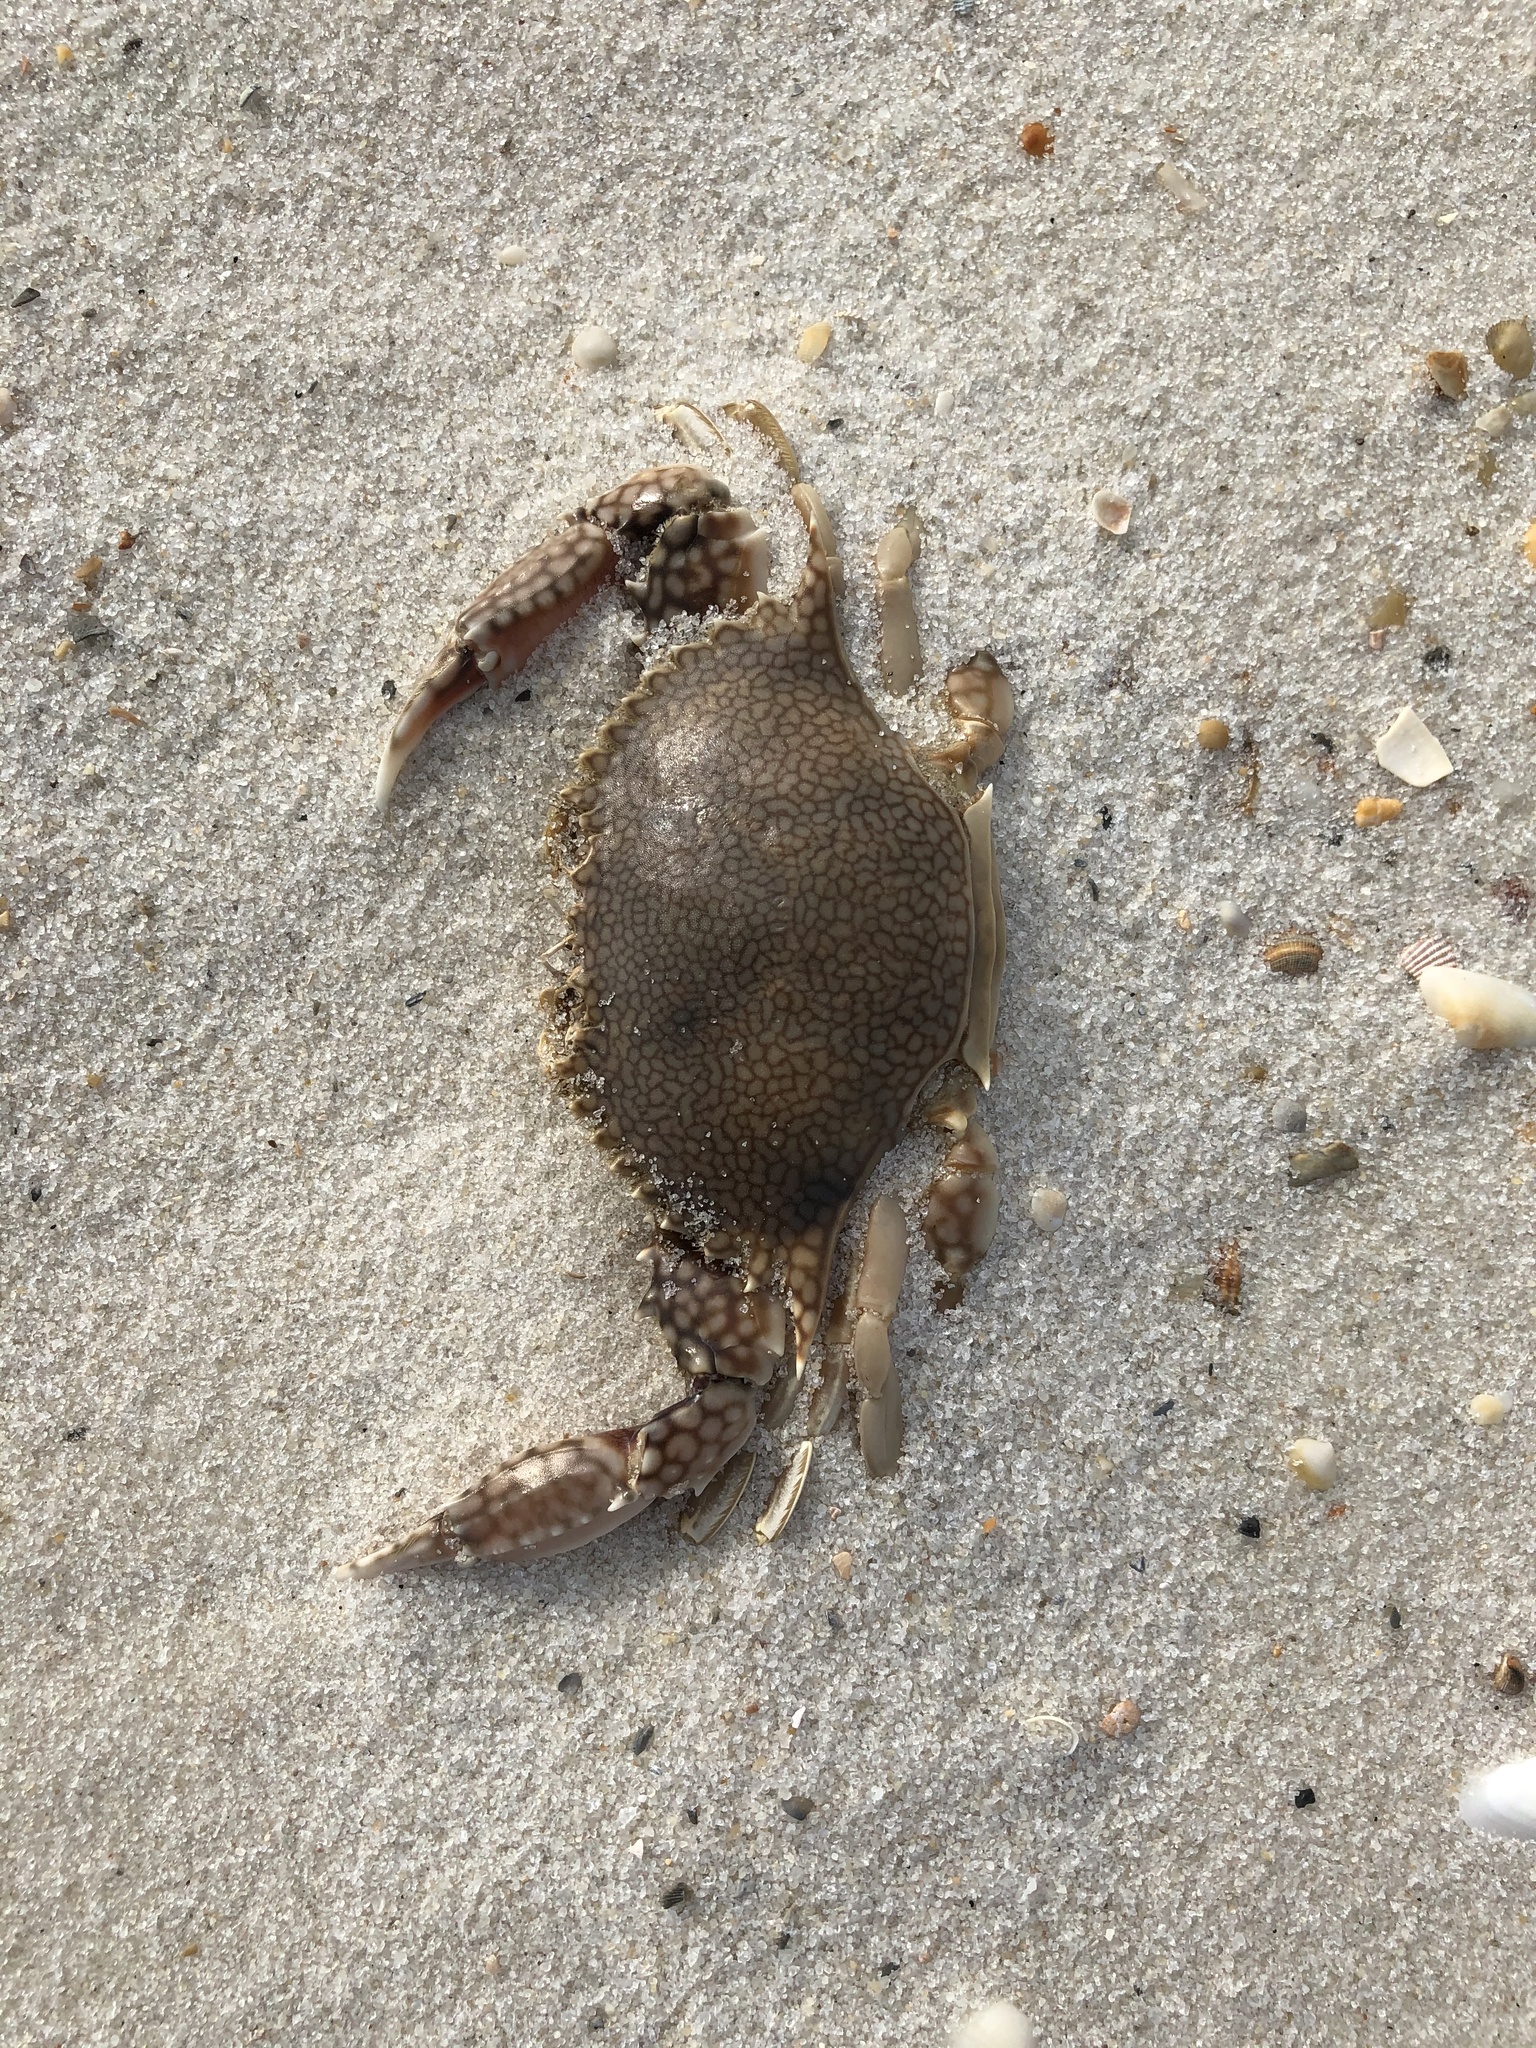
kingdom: Animalia
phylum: Arthropoda
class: Malacostraca
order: Decapoda
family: Portunidae
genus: Arenaeus
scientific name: Arenaeus cribrarius
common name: Speckled crab
